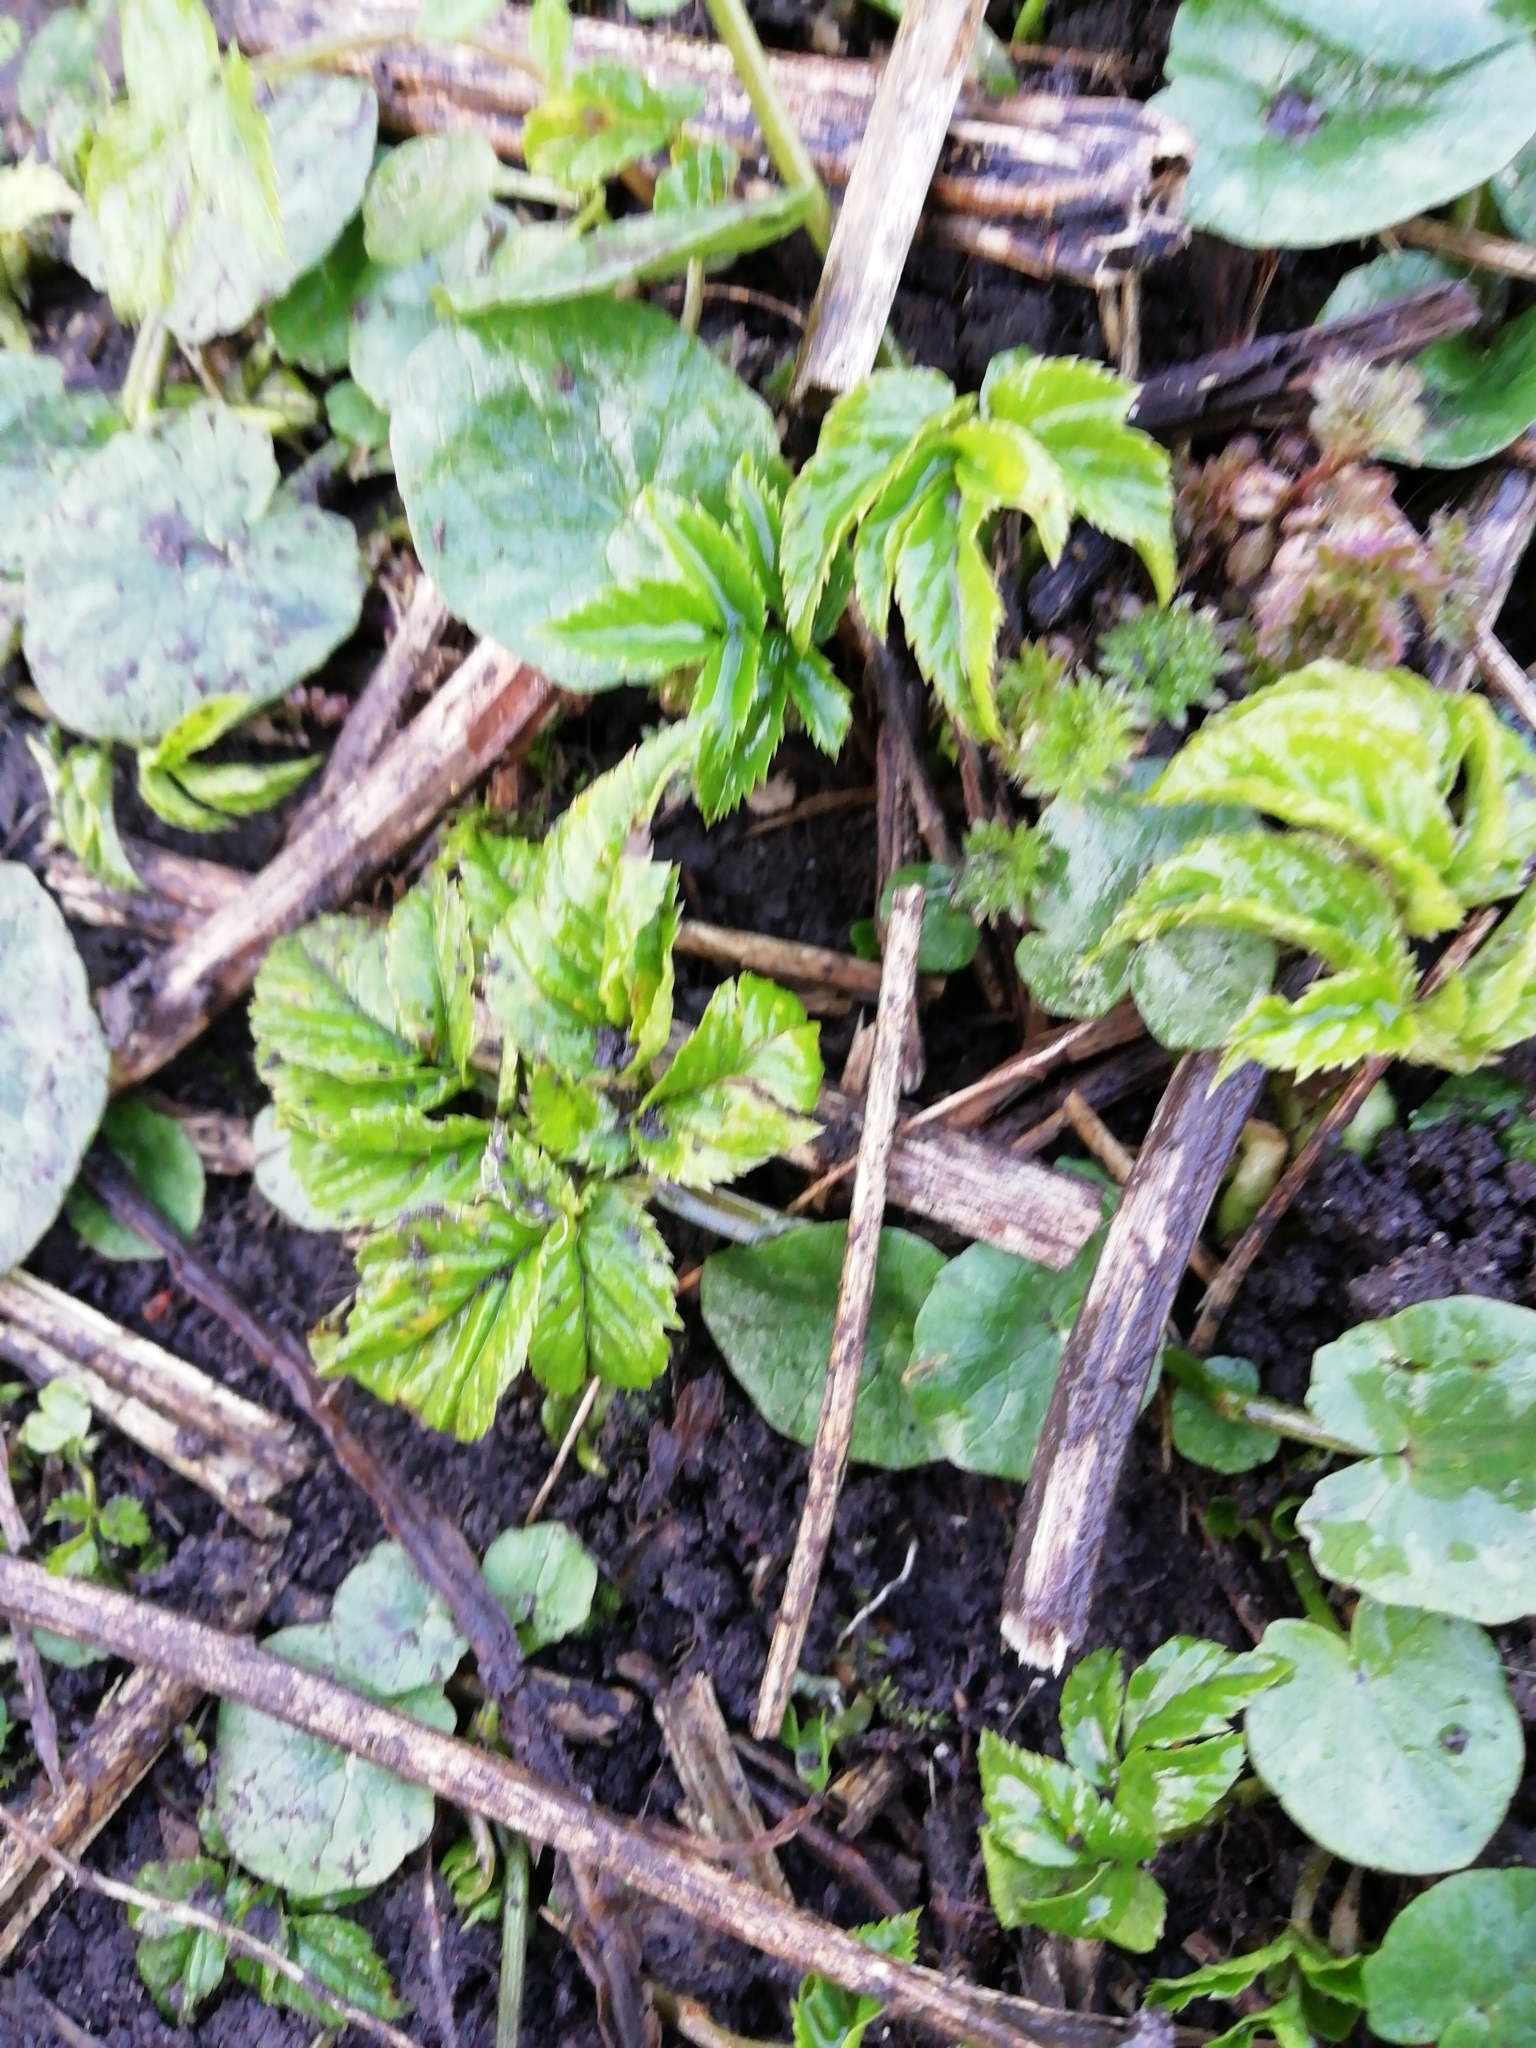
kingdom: Plantae
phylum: Tracheophyta
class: Magnoliopsida
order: Apiales
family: Apiaceae
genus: Aegopodium
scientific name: Aegopodium podagraria
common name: Ground-elder
